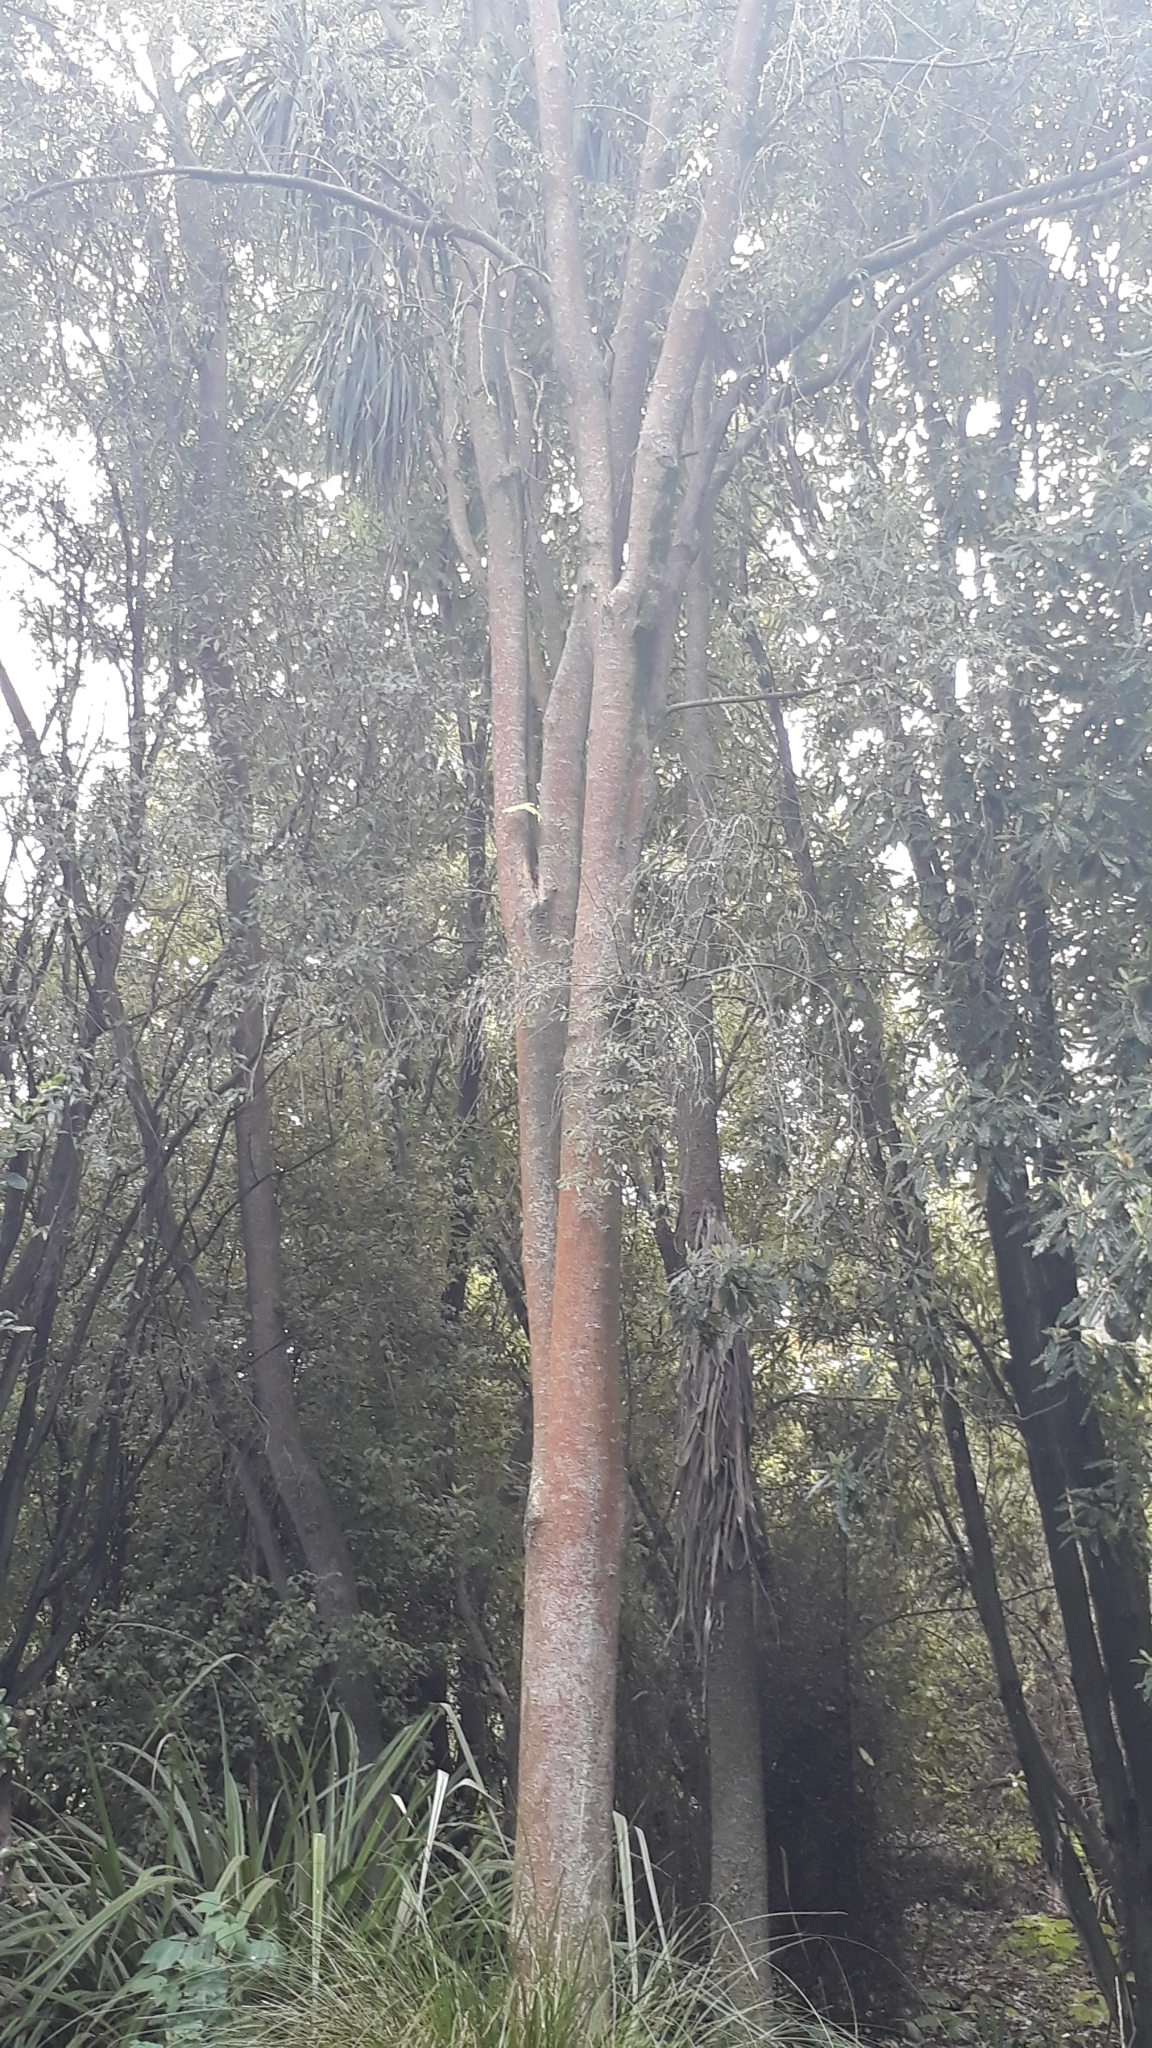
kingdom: Plantae
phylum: Tracheophyta
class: Magnoliopsida
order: Malvales
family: Malvaceae
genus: Hoheria
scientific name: Hoheria angustifolia
